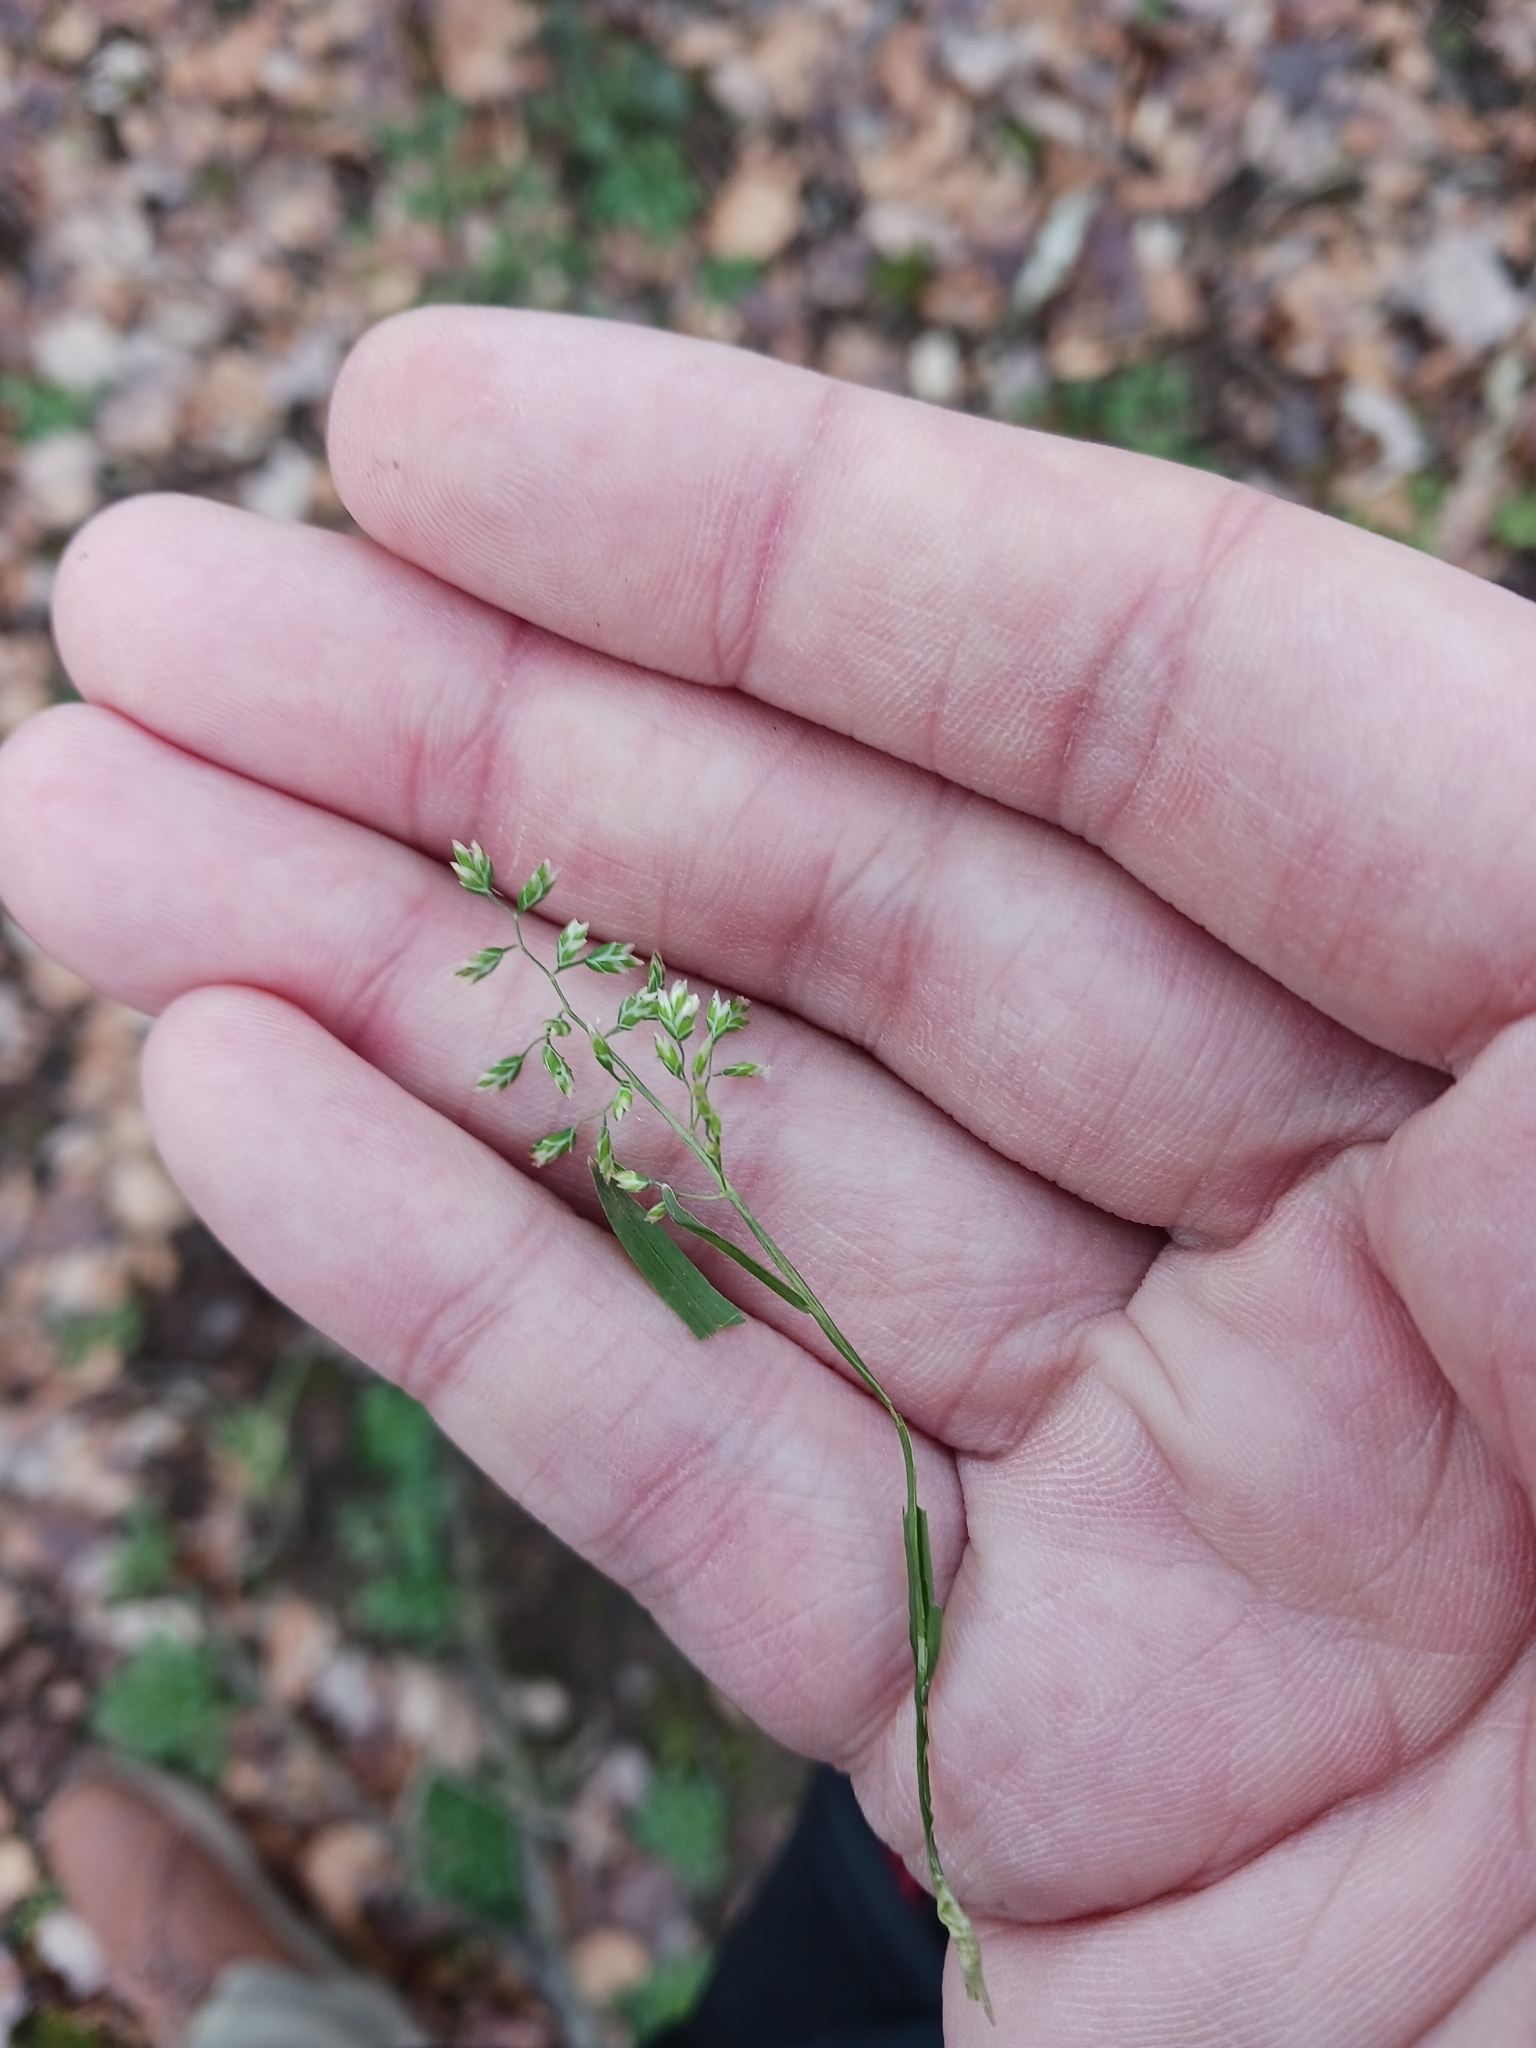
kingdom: Plantae
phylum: Tracheophyta
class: Liliopsida
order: Poales
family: Poaceae
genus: Poa
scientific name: Poa annua
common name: Annual bluegrass
